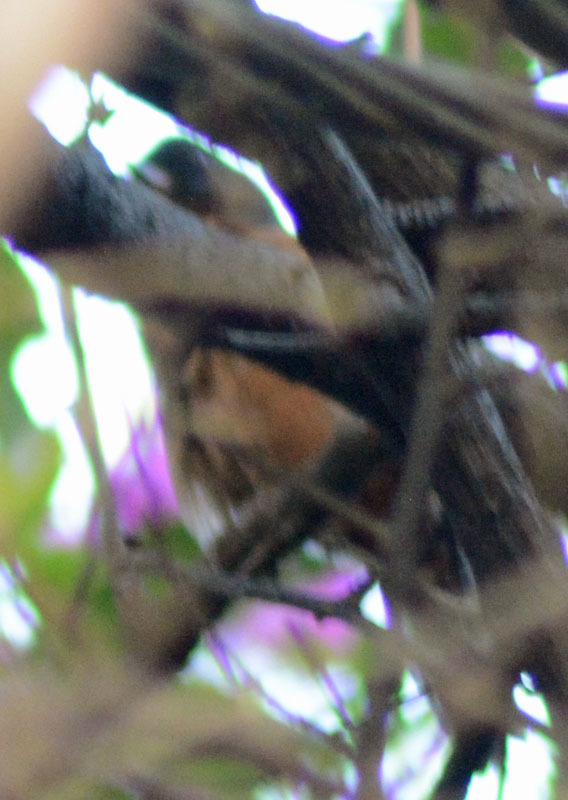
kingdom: Animalia
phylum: Chordata
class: Aves
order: Passeriformes
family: Thraupidae
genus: Diglossa
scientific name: Diglossa baritula
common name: Cinnamon-bellied flowerpiercer
